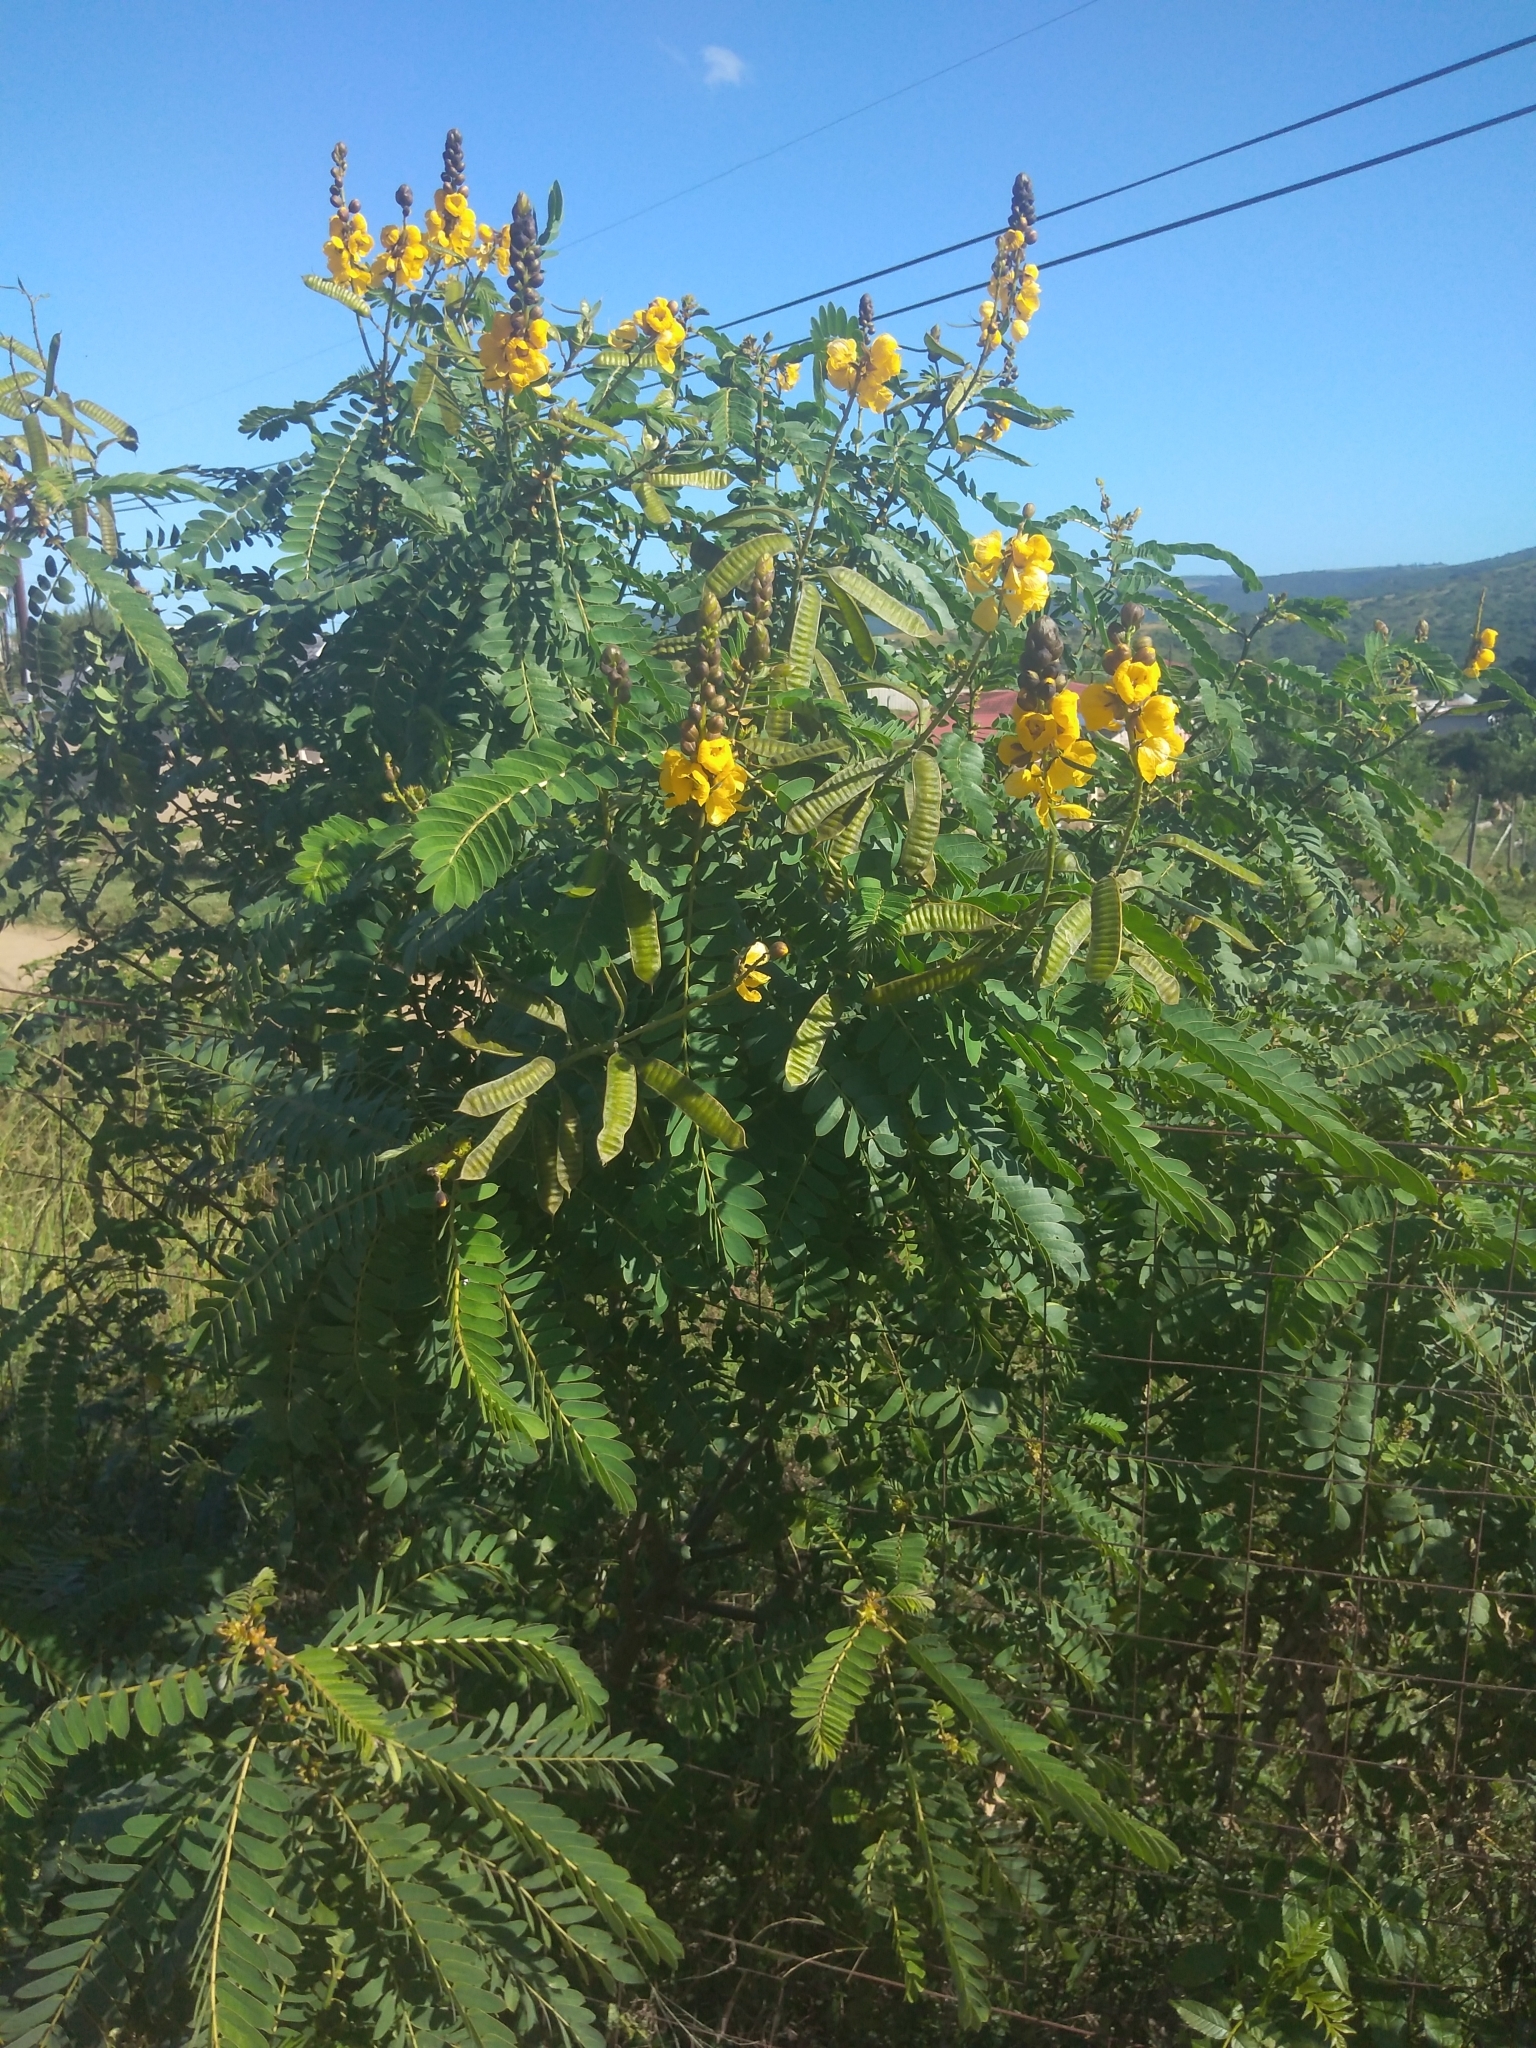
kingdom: Plantae
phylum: Tracheophyta
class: Magnoliopsida
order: Fabales
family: Fabaceae
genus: Senna
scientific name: Senna didymobotrya
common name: African senna
